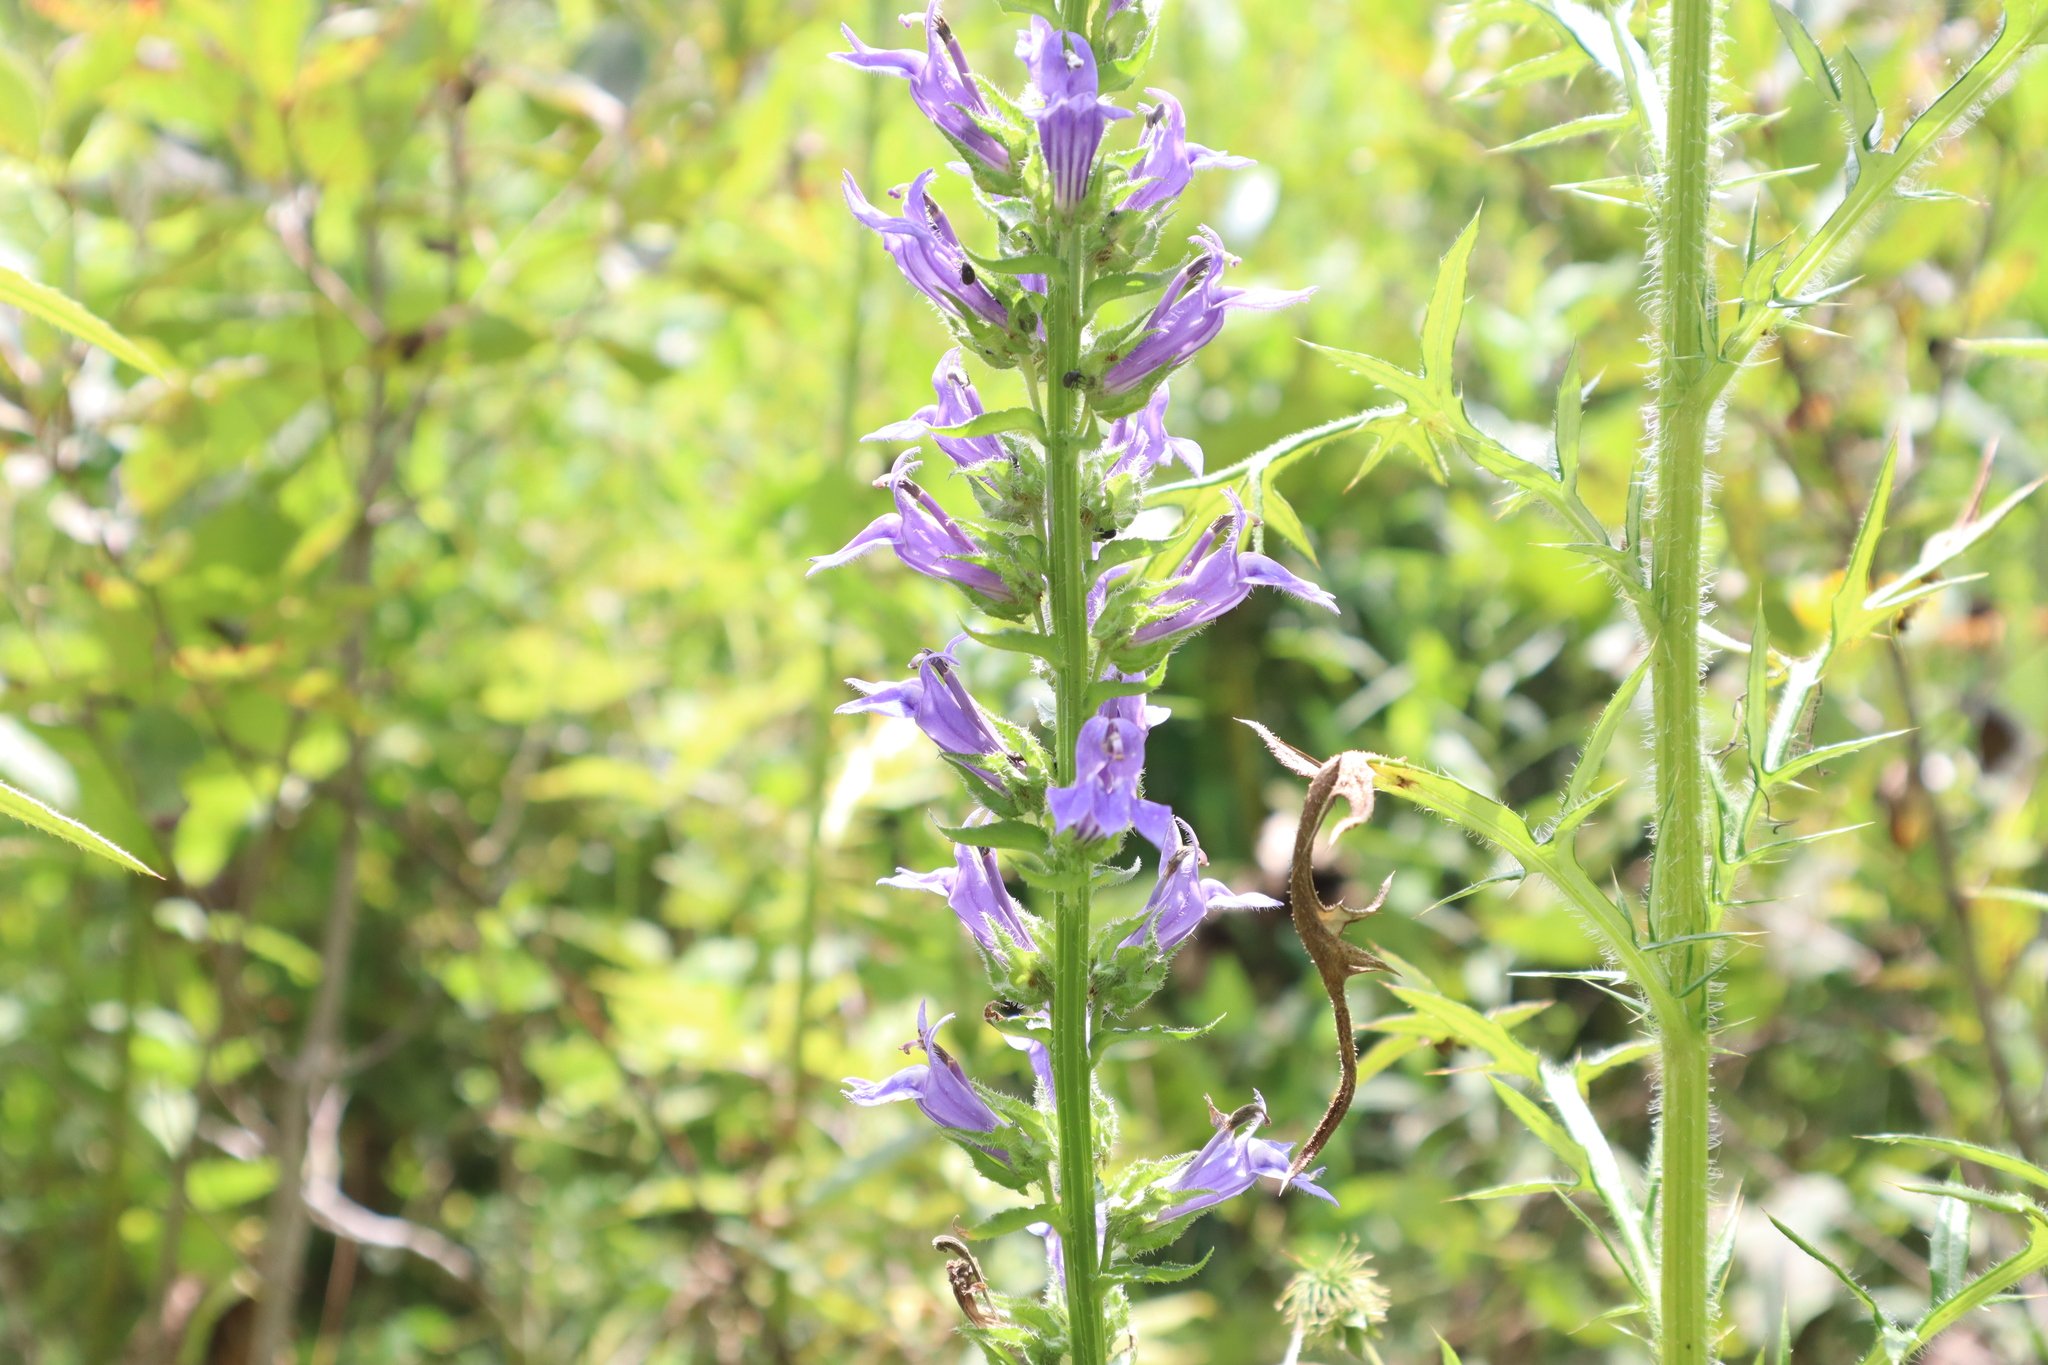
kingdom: Plantae
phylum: Tracheophyta
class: Magnoliopsida
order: Asterales
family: Campanulaceae
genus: Lobelia
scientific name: Lobelia siphilitica
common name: Great lobelia
